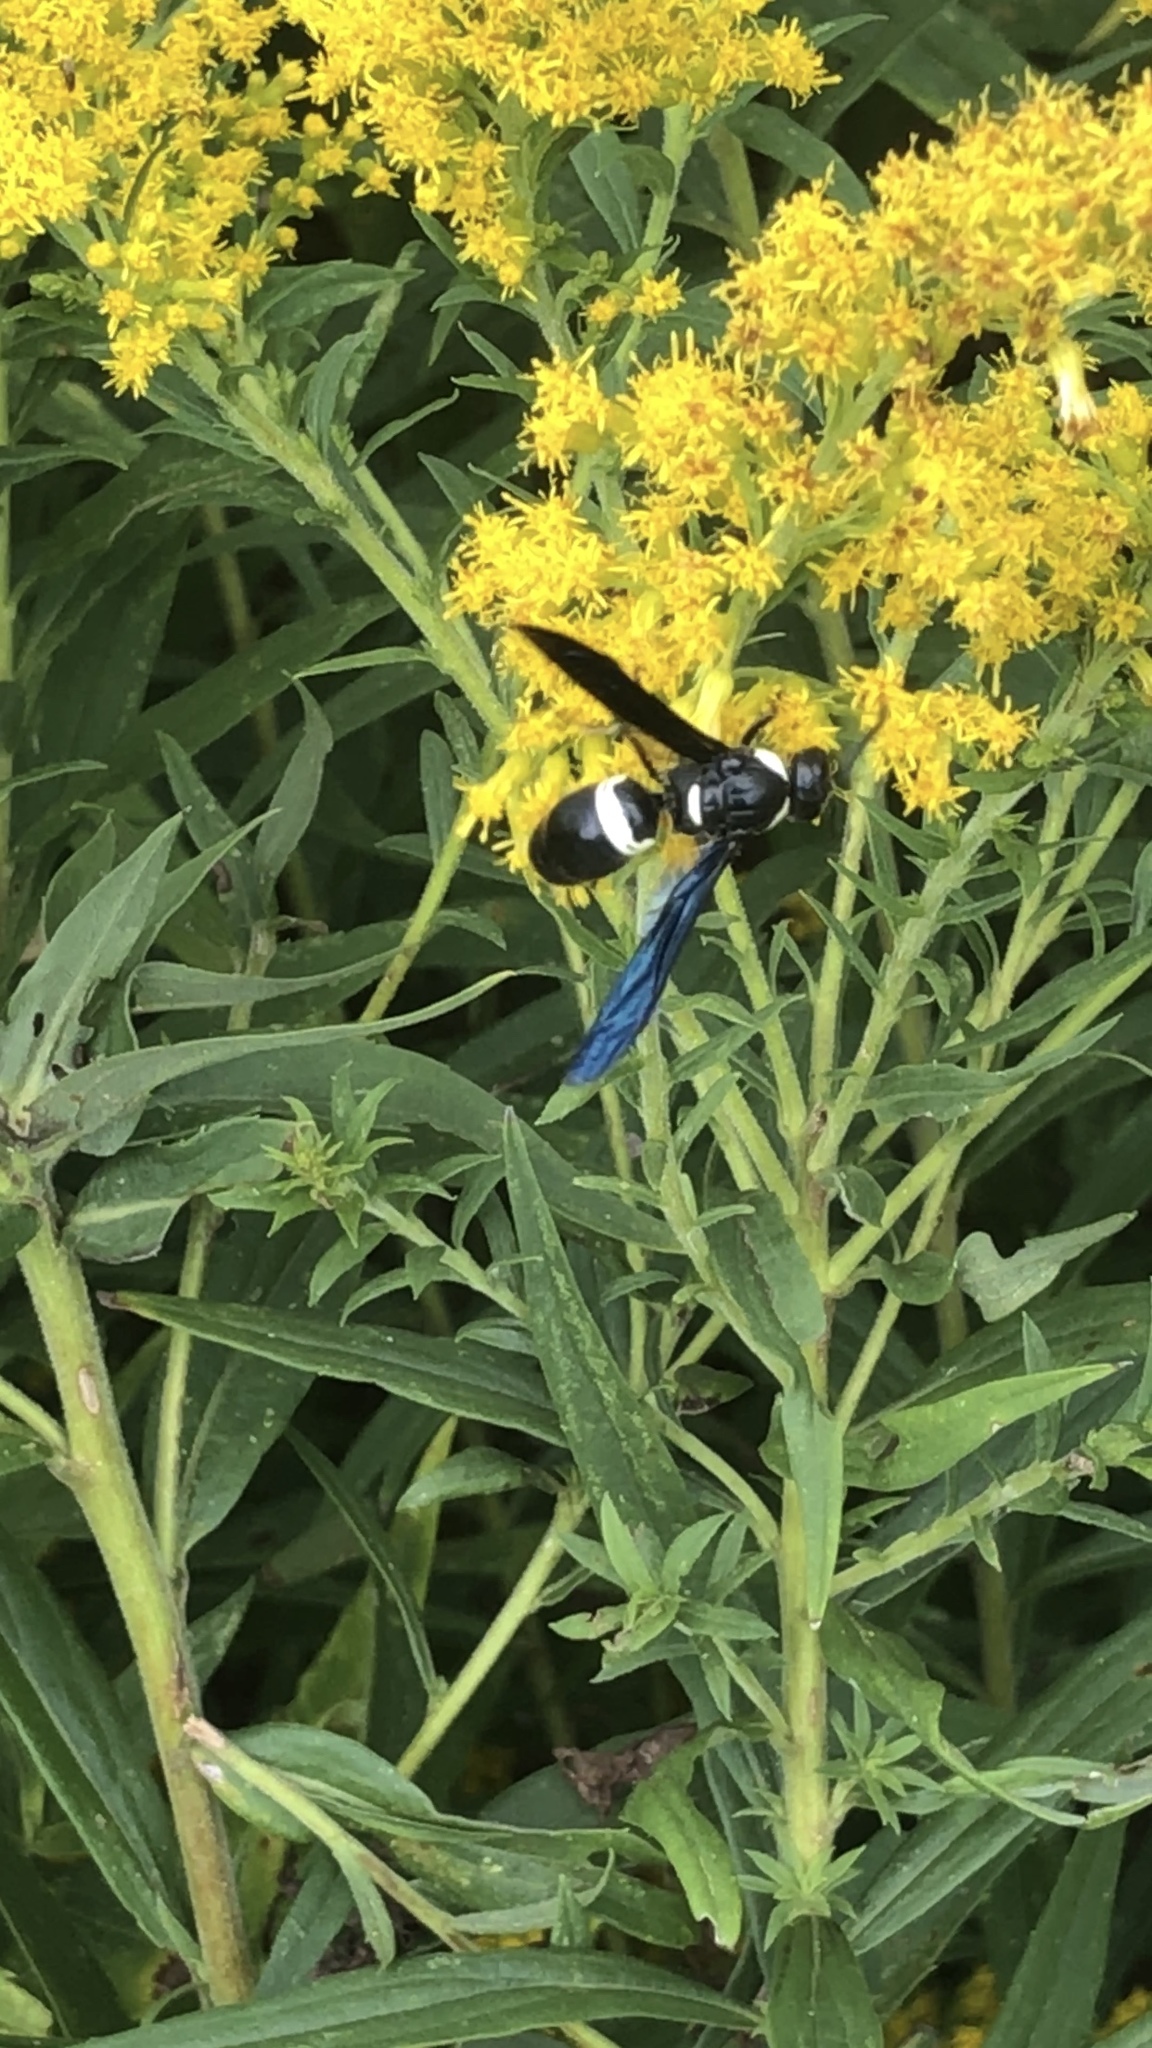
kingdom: Animalia
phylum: Arthropoda
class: Insecta
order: Hymenoptera
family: Eumenidae
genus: Monobia
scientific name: Monobia quadridens
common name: Four-toothed mason wasp
